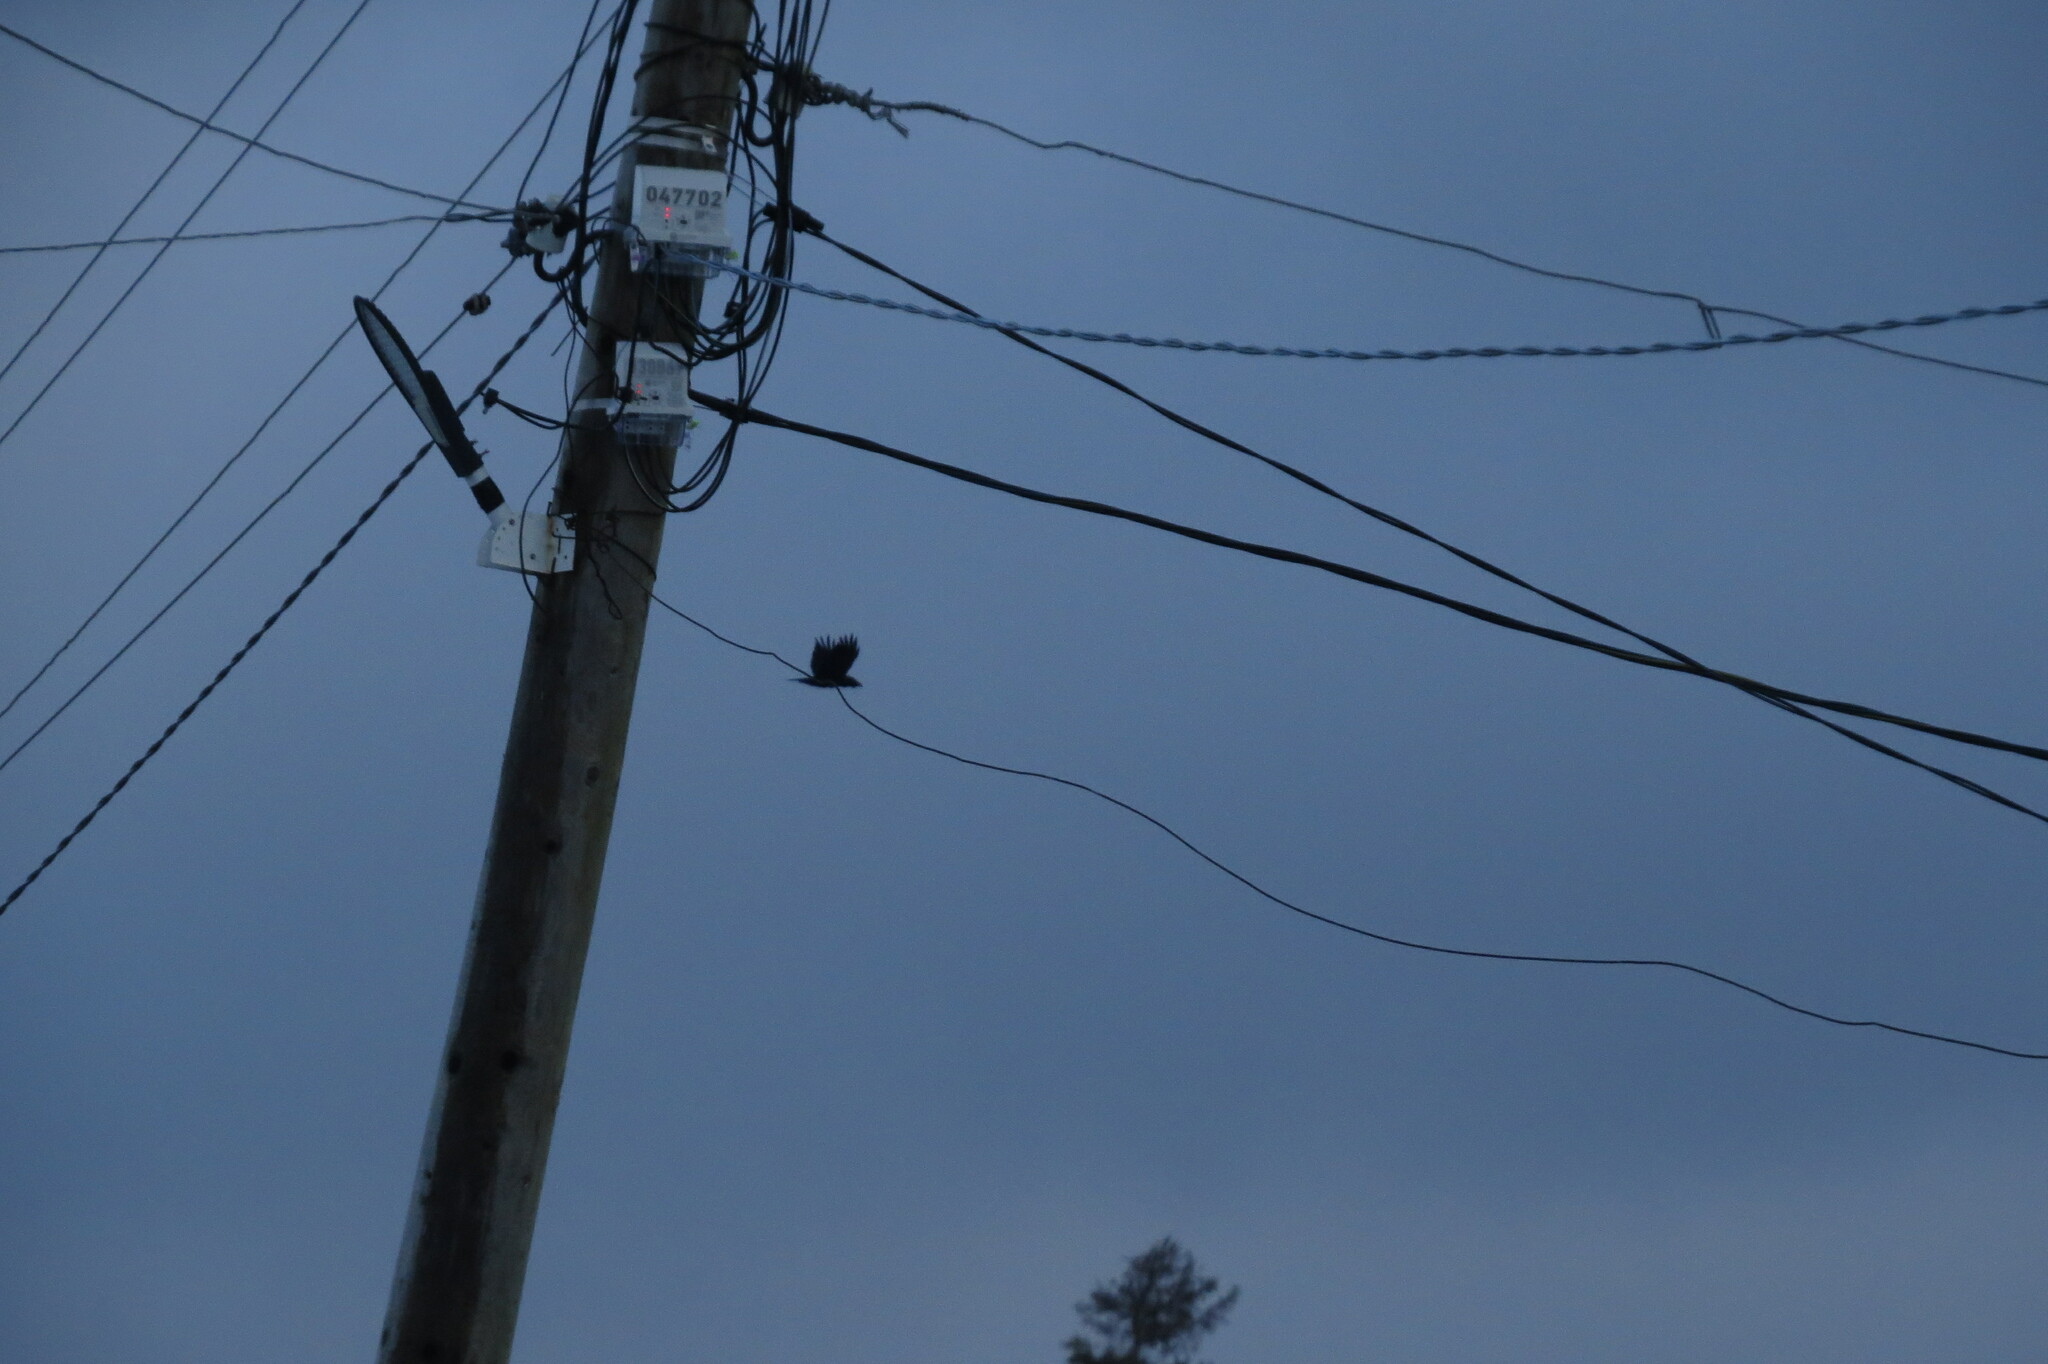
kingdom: Animalia
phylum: Chordata
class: Aves
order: Passeriformes
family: Corvidae
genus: Corvus
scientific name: Corvus corax
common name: Common raven
